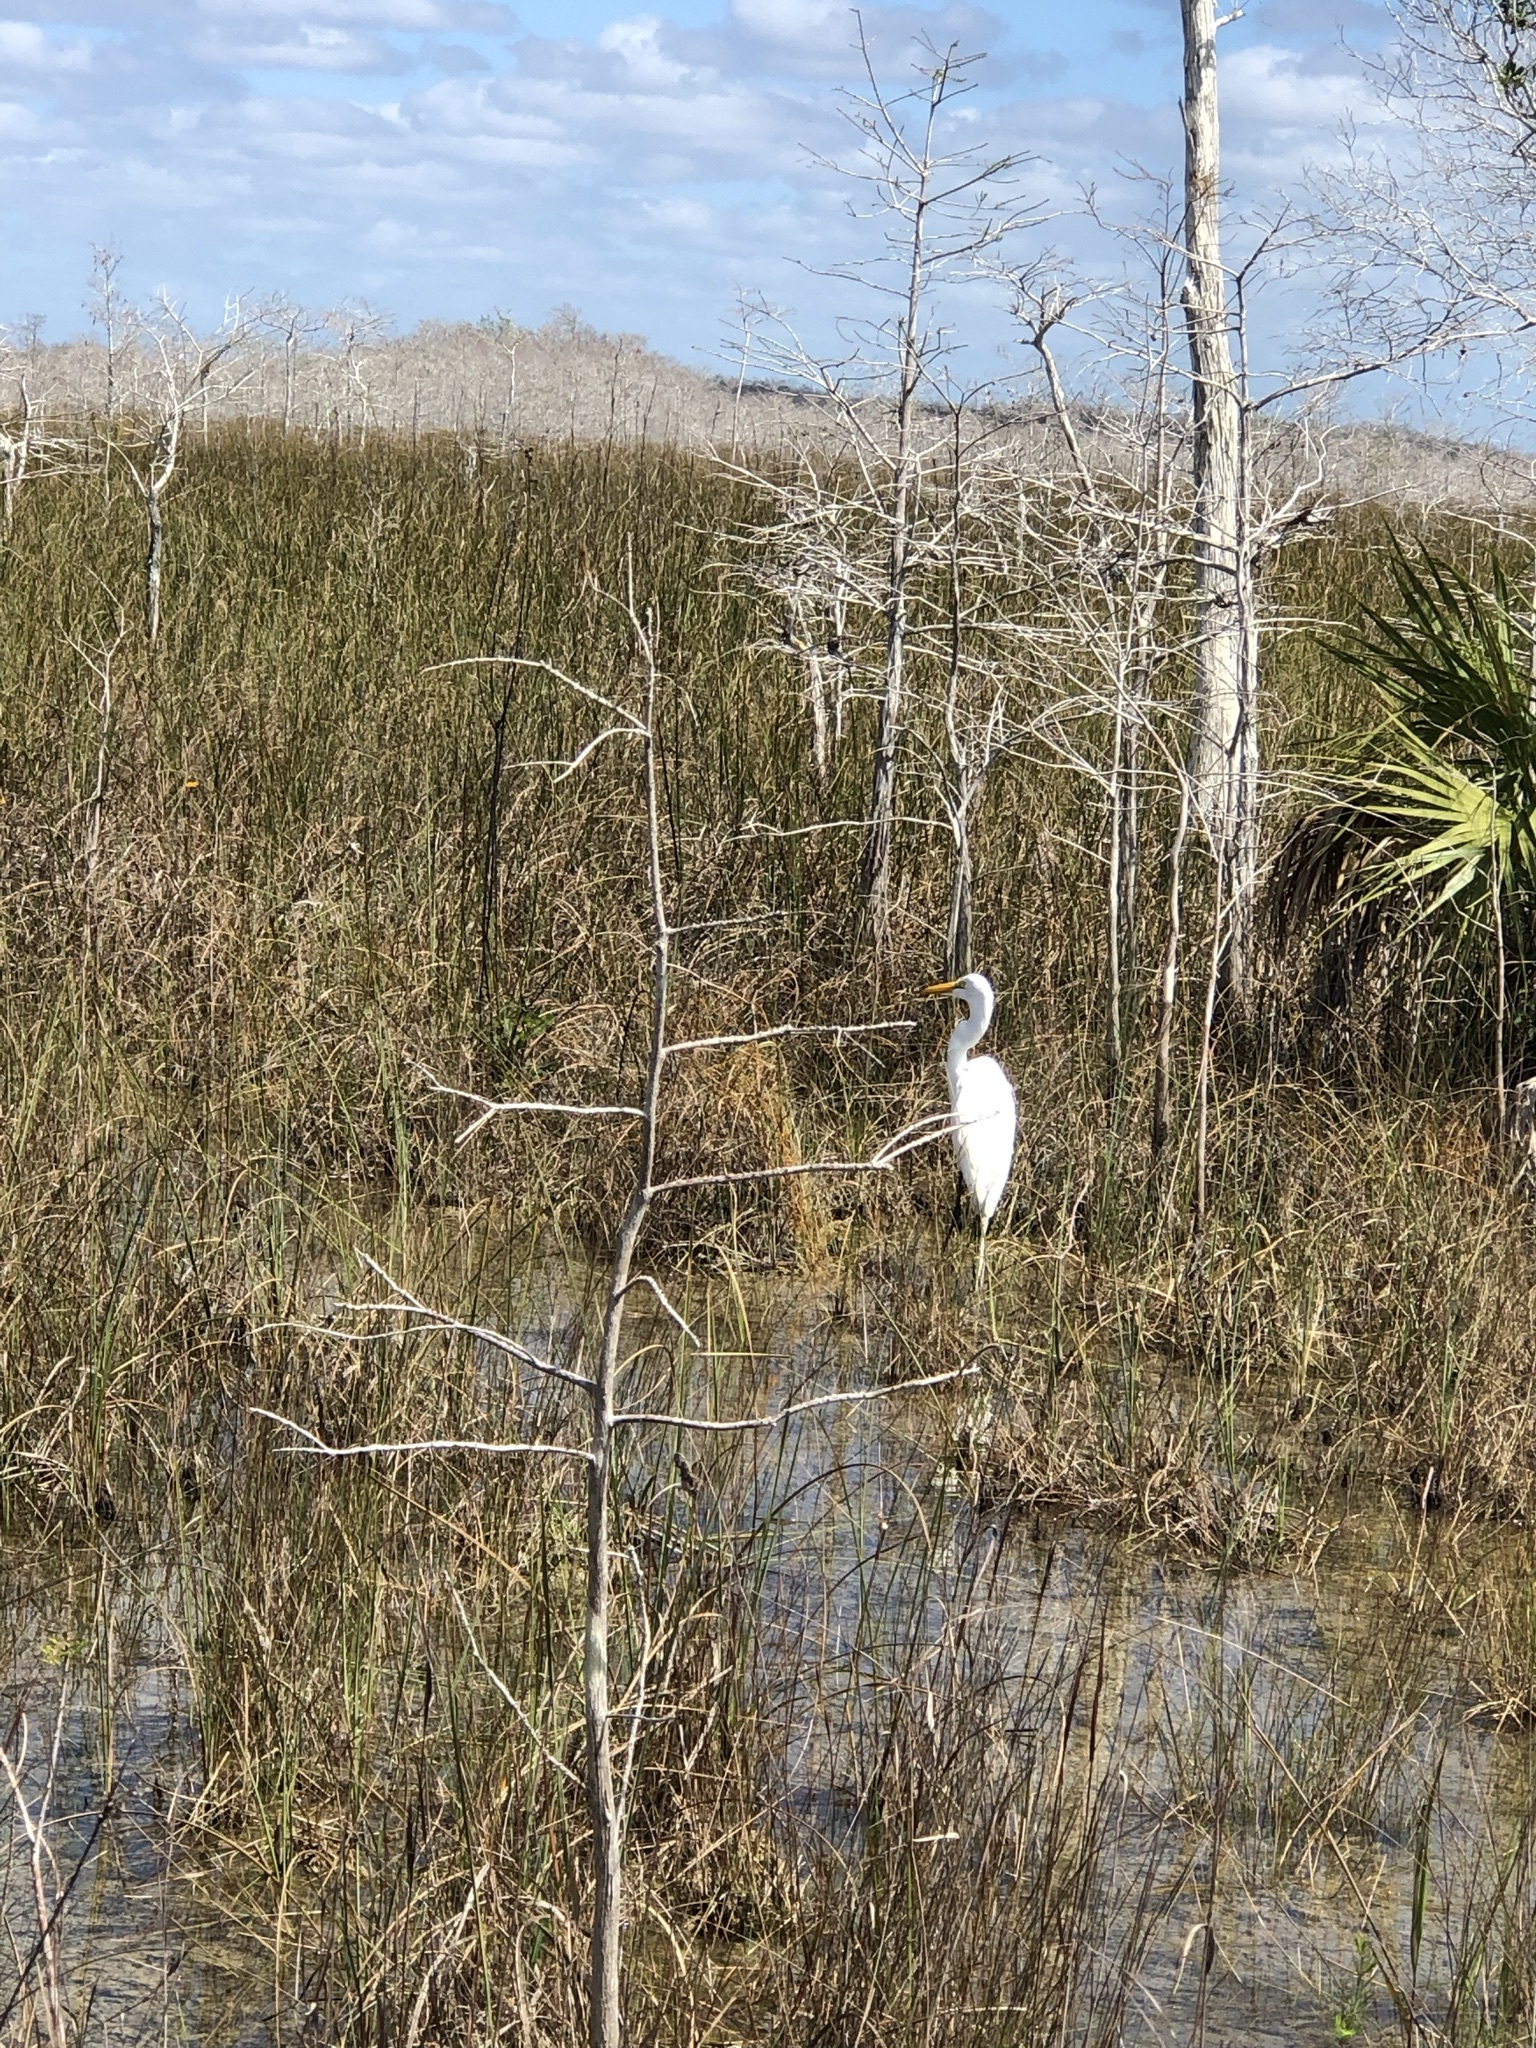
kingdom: Animalia
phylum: Chordata
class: Aves
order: Pelecaniformes
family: Ardeidae
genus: Ardea
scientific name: Ardea alba
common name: Great egret
